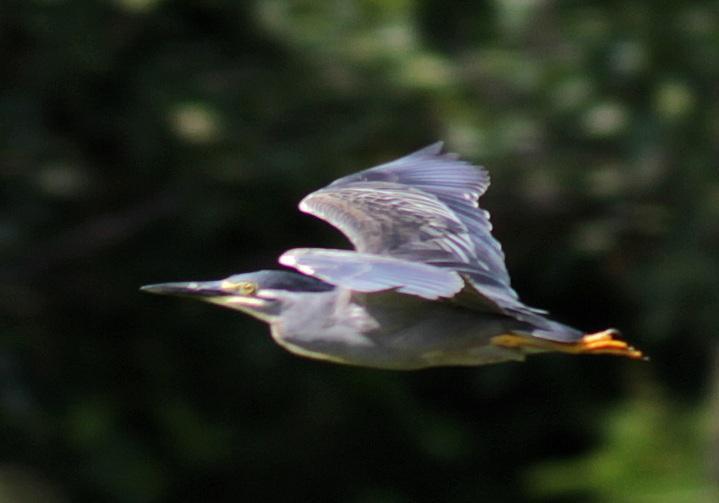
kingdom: Animalia
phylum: Chordata
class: Aves
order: Pelecaniformes
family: Ardeidae
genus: Butorides
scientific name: Butorides striata
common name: Striated heron
